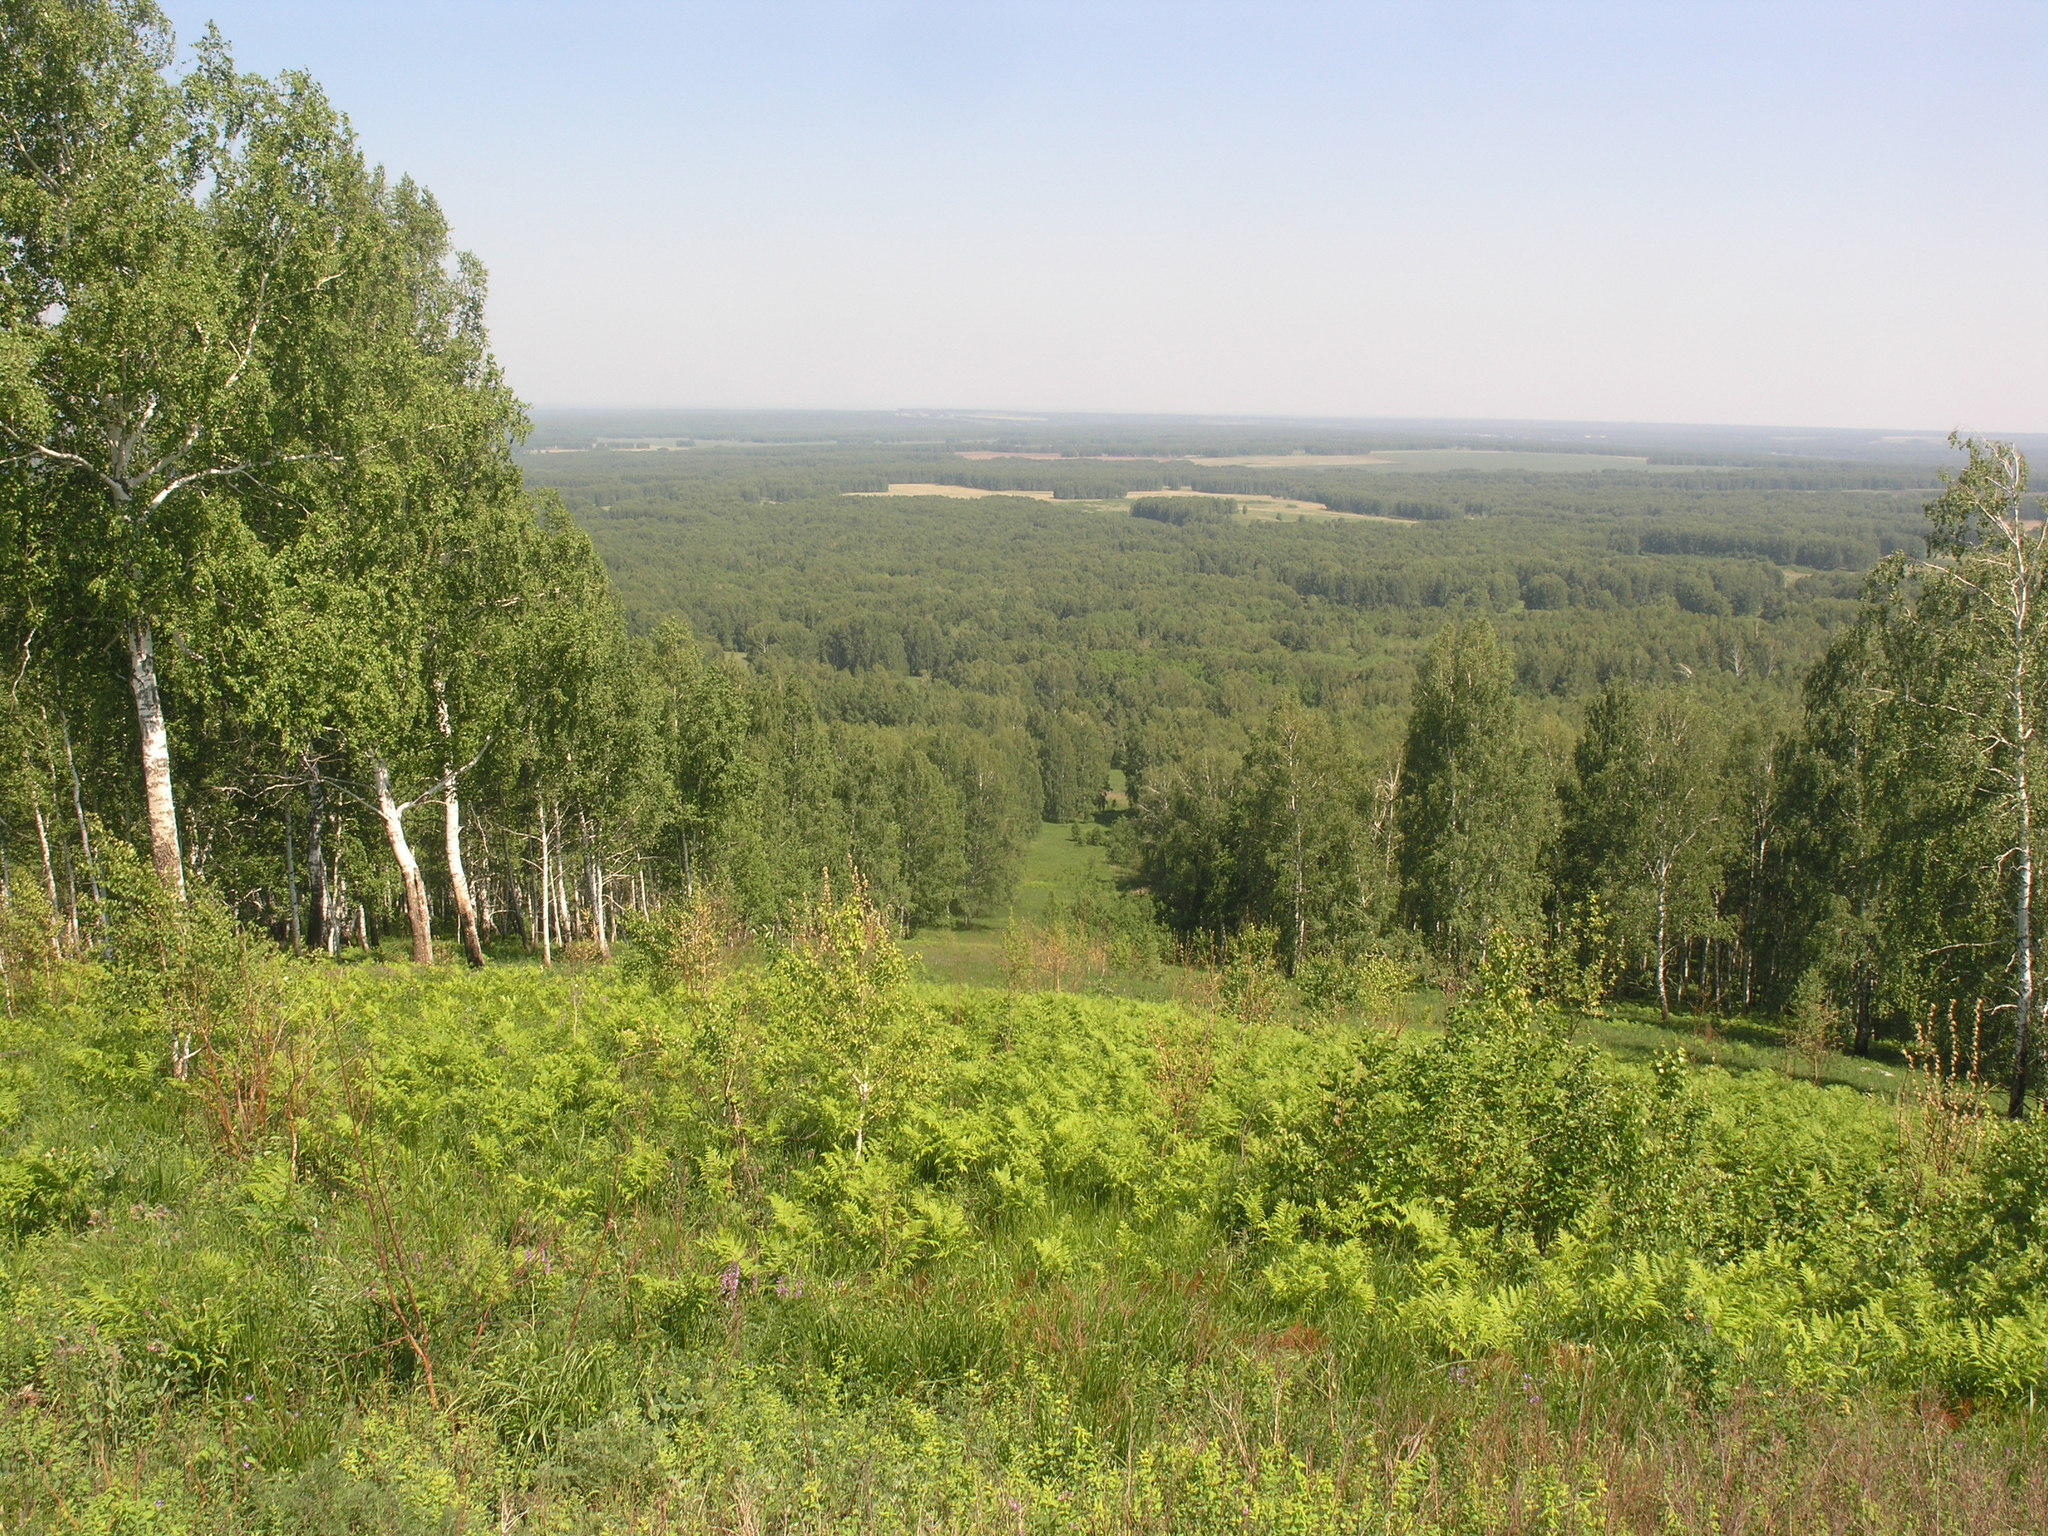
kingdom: Plantae
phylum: Tracheophyta
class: Magnoliopsida
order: Fagales
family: Betulaceae
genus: Betula
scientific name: Betula pendula
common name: Silver birch
